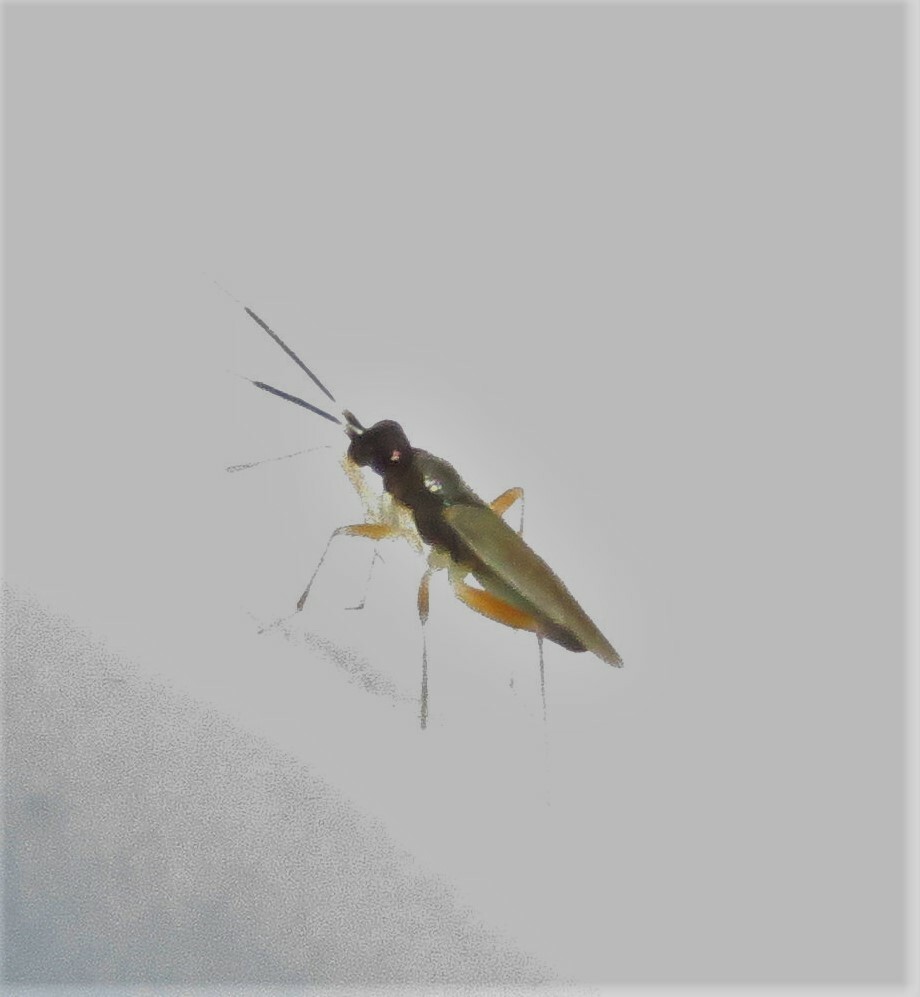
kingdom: Animalia
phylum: Arthropoda
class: Insecta
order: Hemiptera
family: Miridae
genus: Tytthus
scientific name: Tytthus pygmaeus
